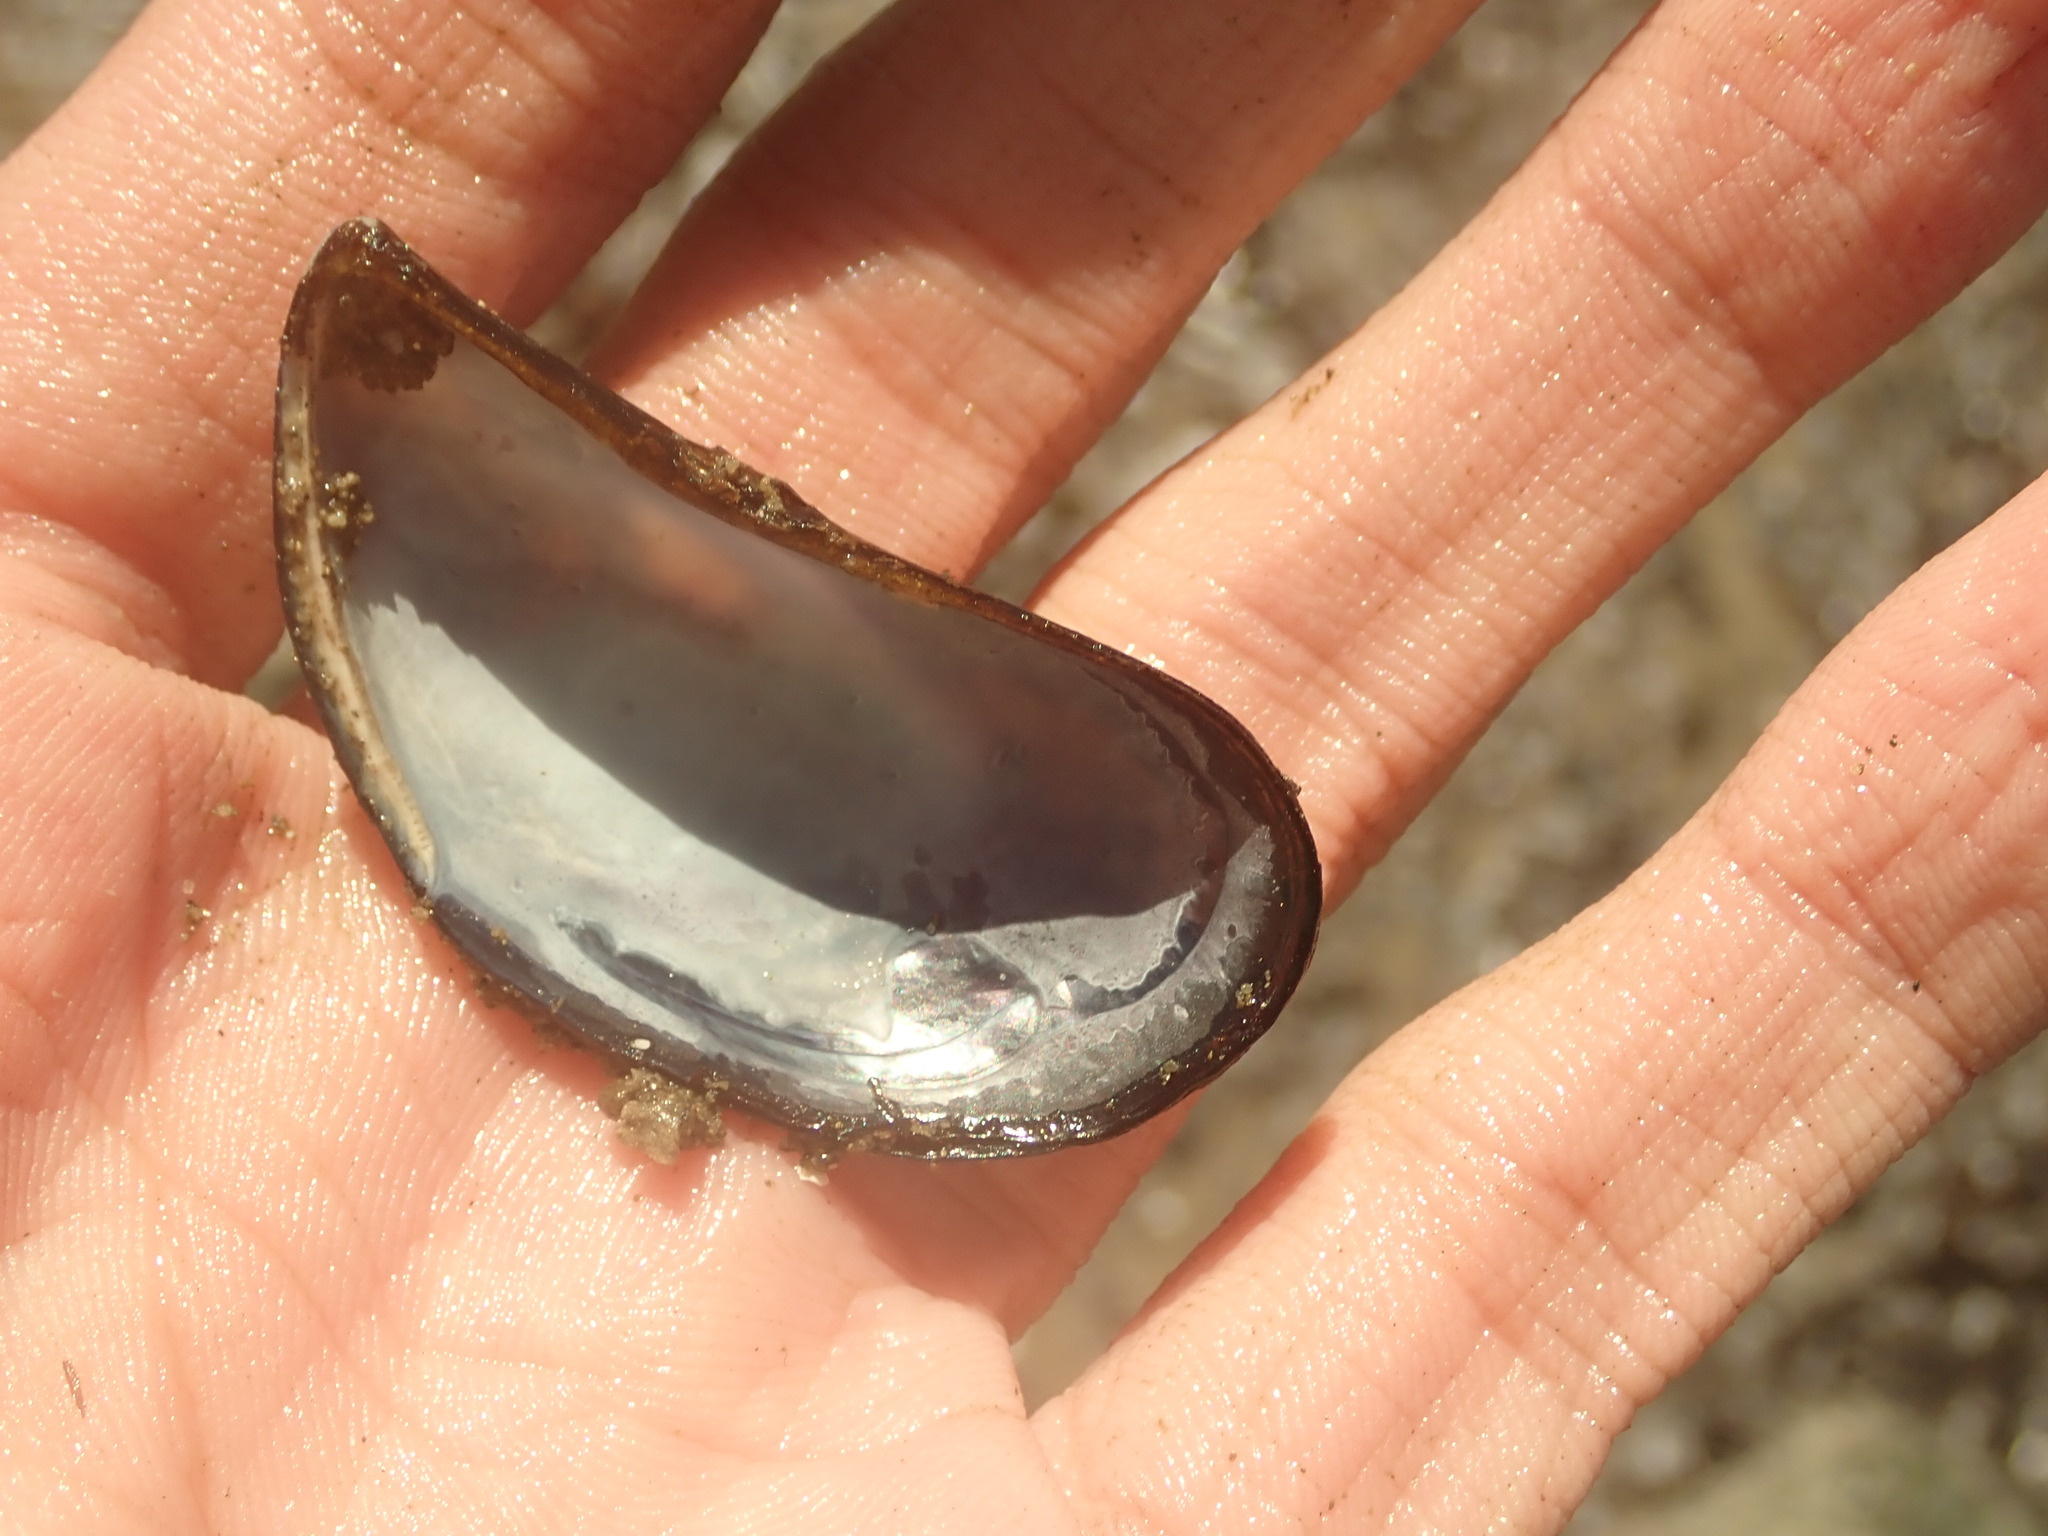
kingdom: Animalia
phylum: Mollusca
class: Bivalvia
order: Mytilida
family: Mytilidae
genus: Mytilus
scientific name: Mytilus
